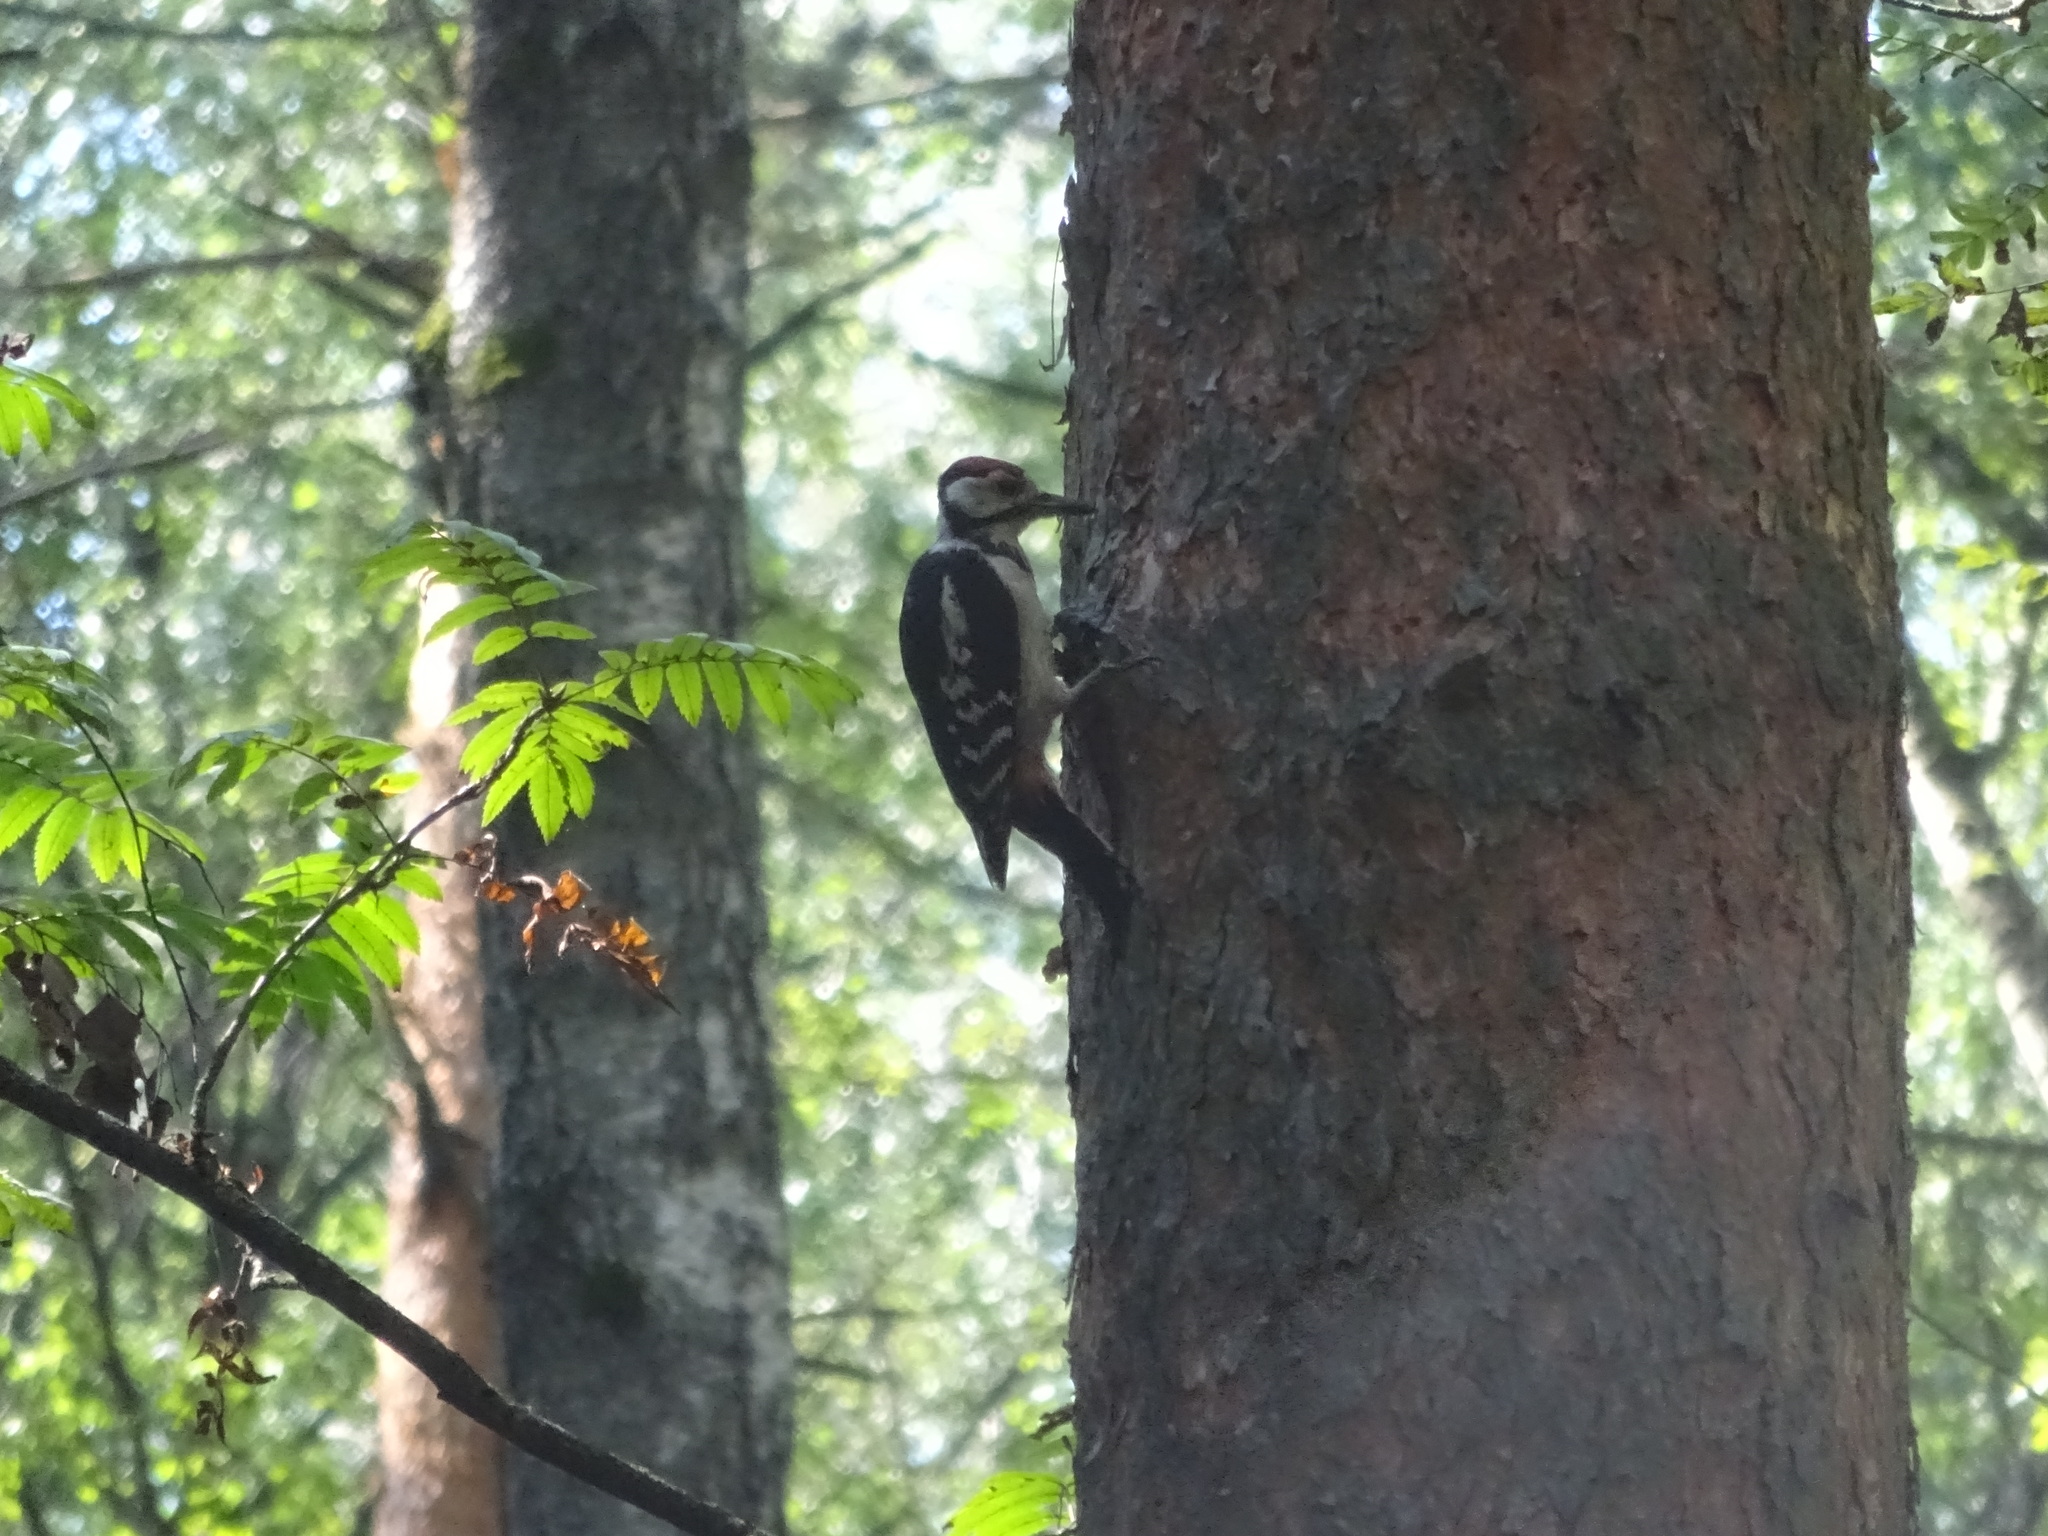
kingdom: Animalia
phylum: Chordata
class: Aves
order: Piciformes
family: Picidae
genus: Dendrocopos
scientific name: Dendrocopos major
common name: Great spotted woodpecker
